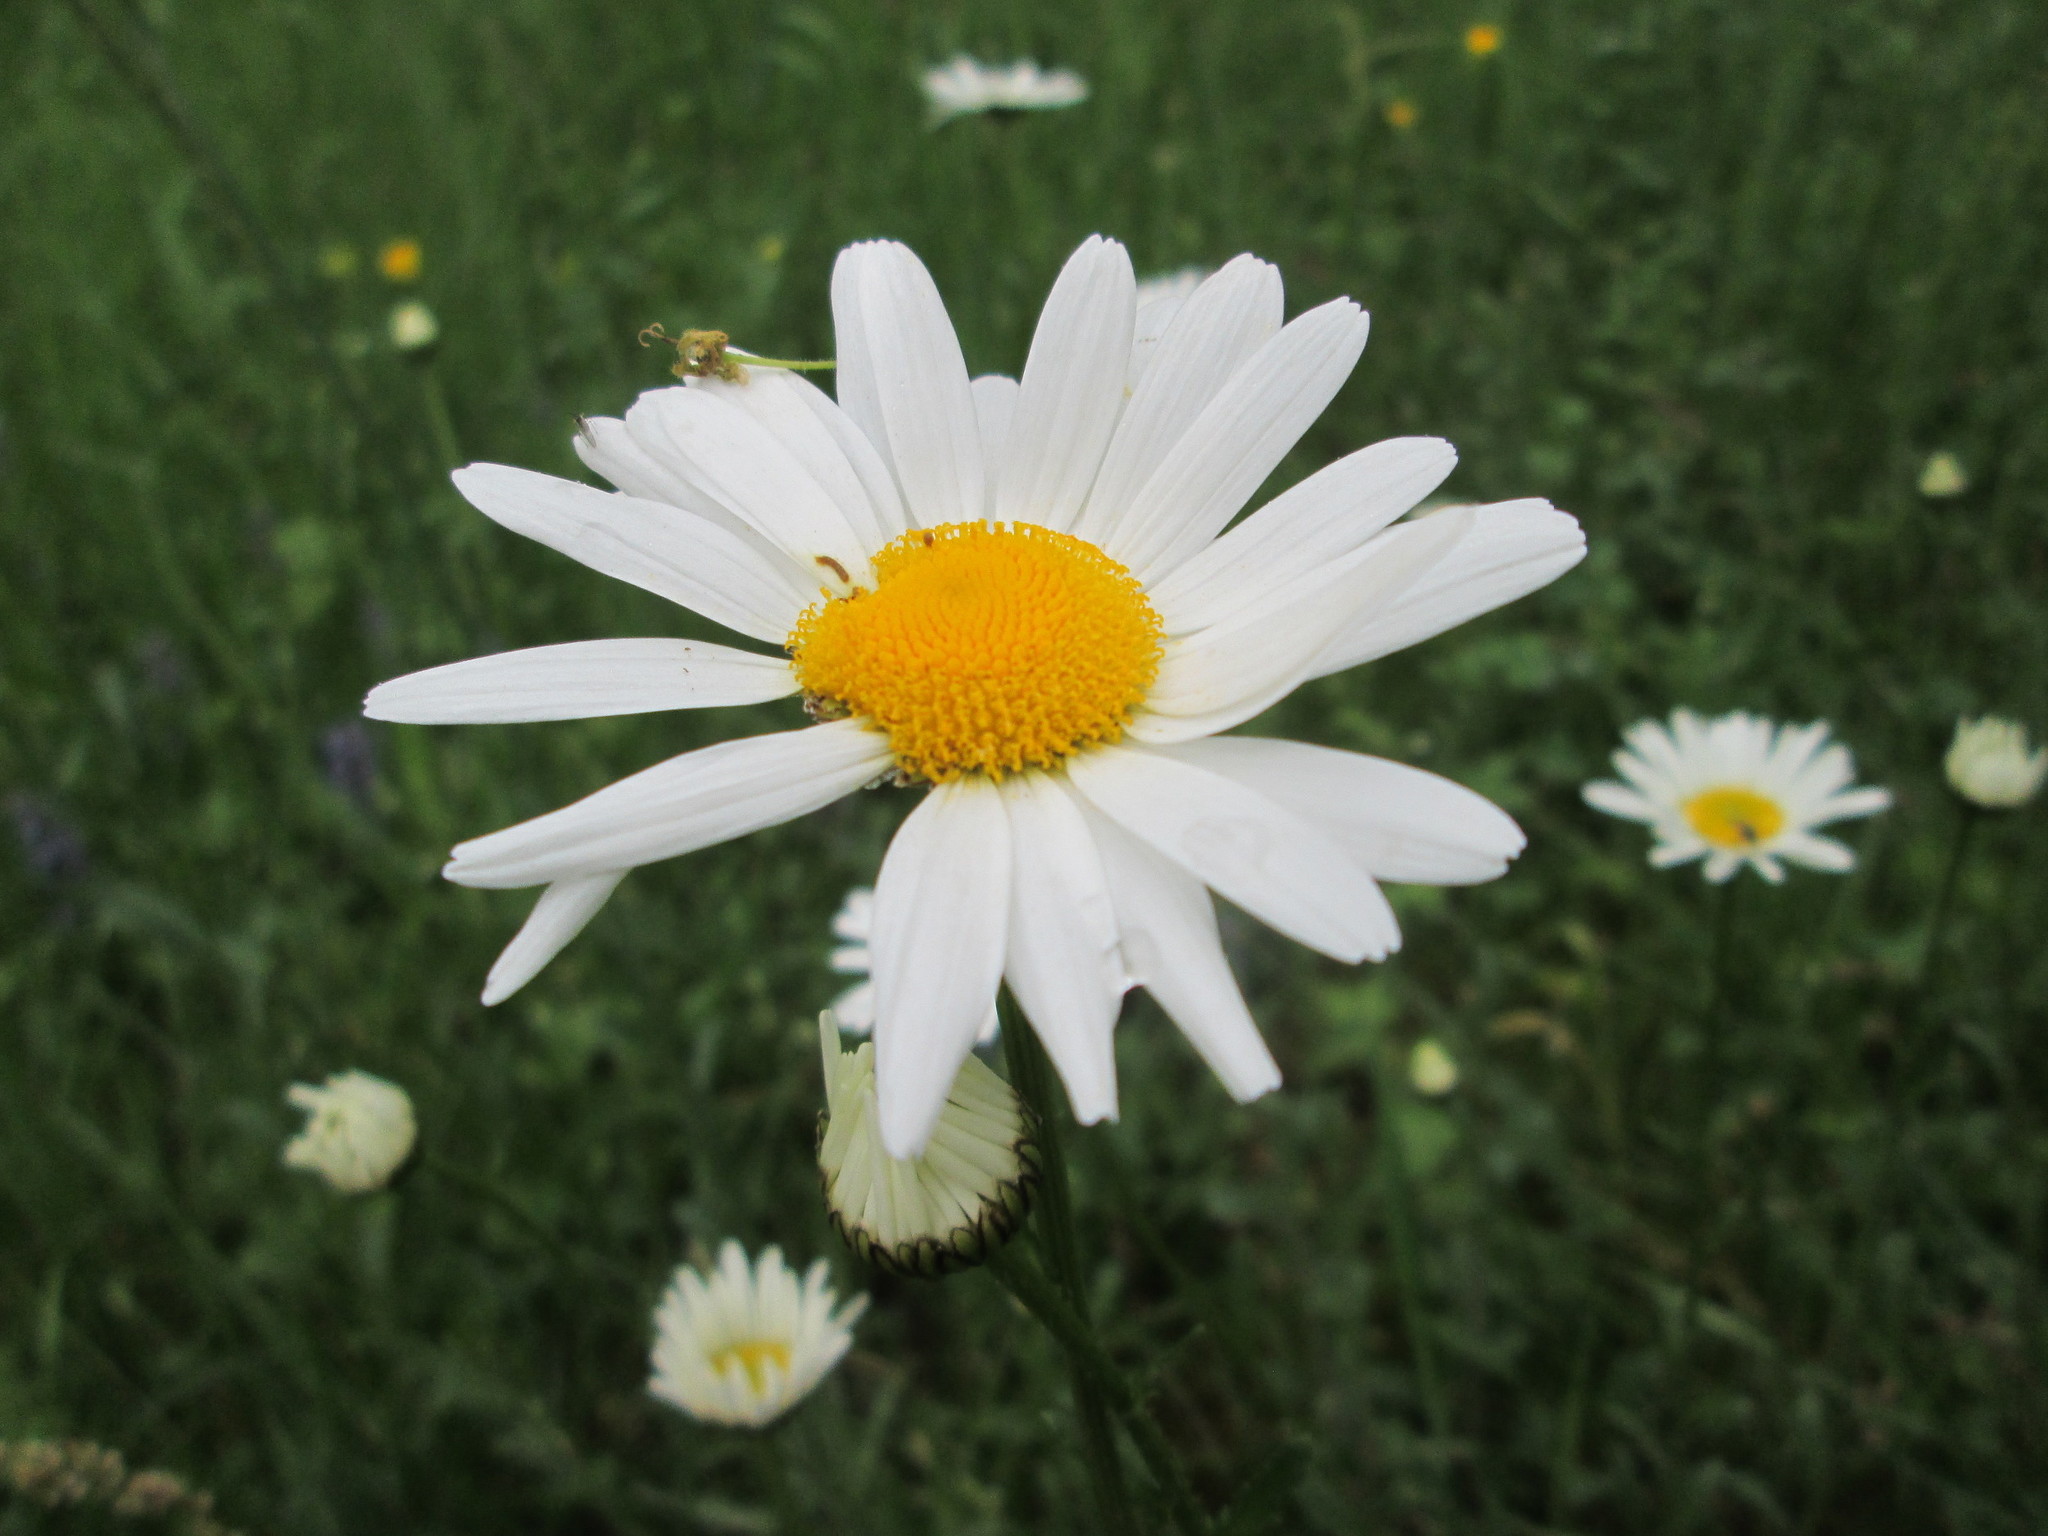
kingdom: Plantae
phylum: Tracheophyta
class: Magnoliopsida
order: Asterales
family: Asteraceae
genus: Leucanthemum
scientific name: Leucanthemum vulgare
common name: Oxeye daisy
